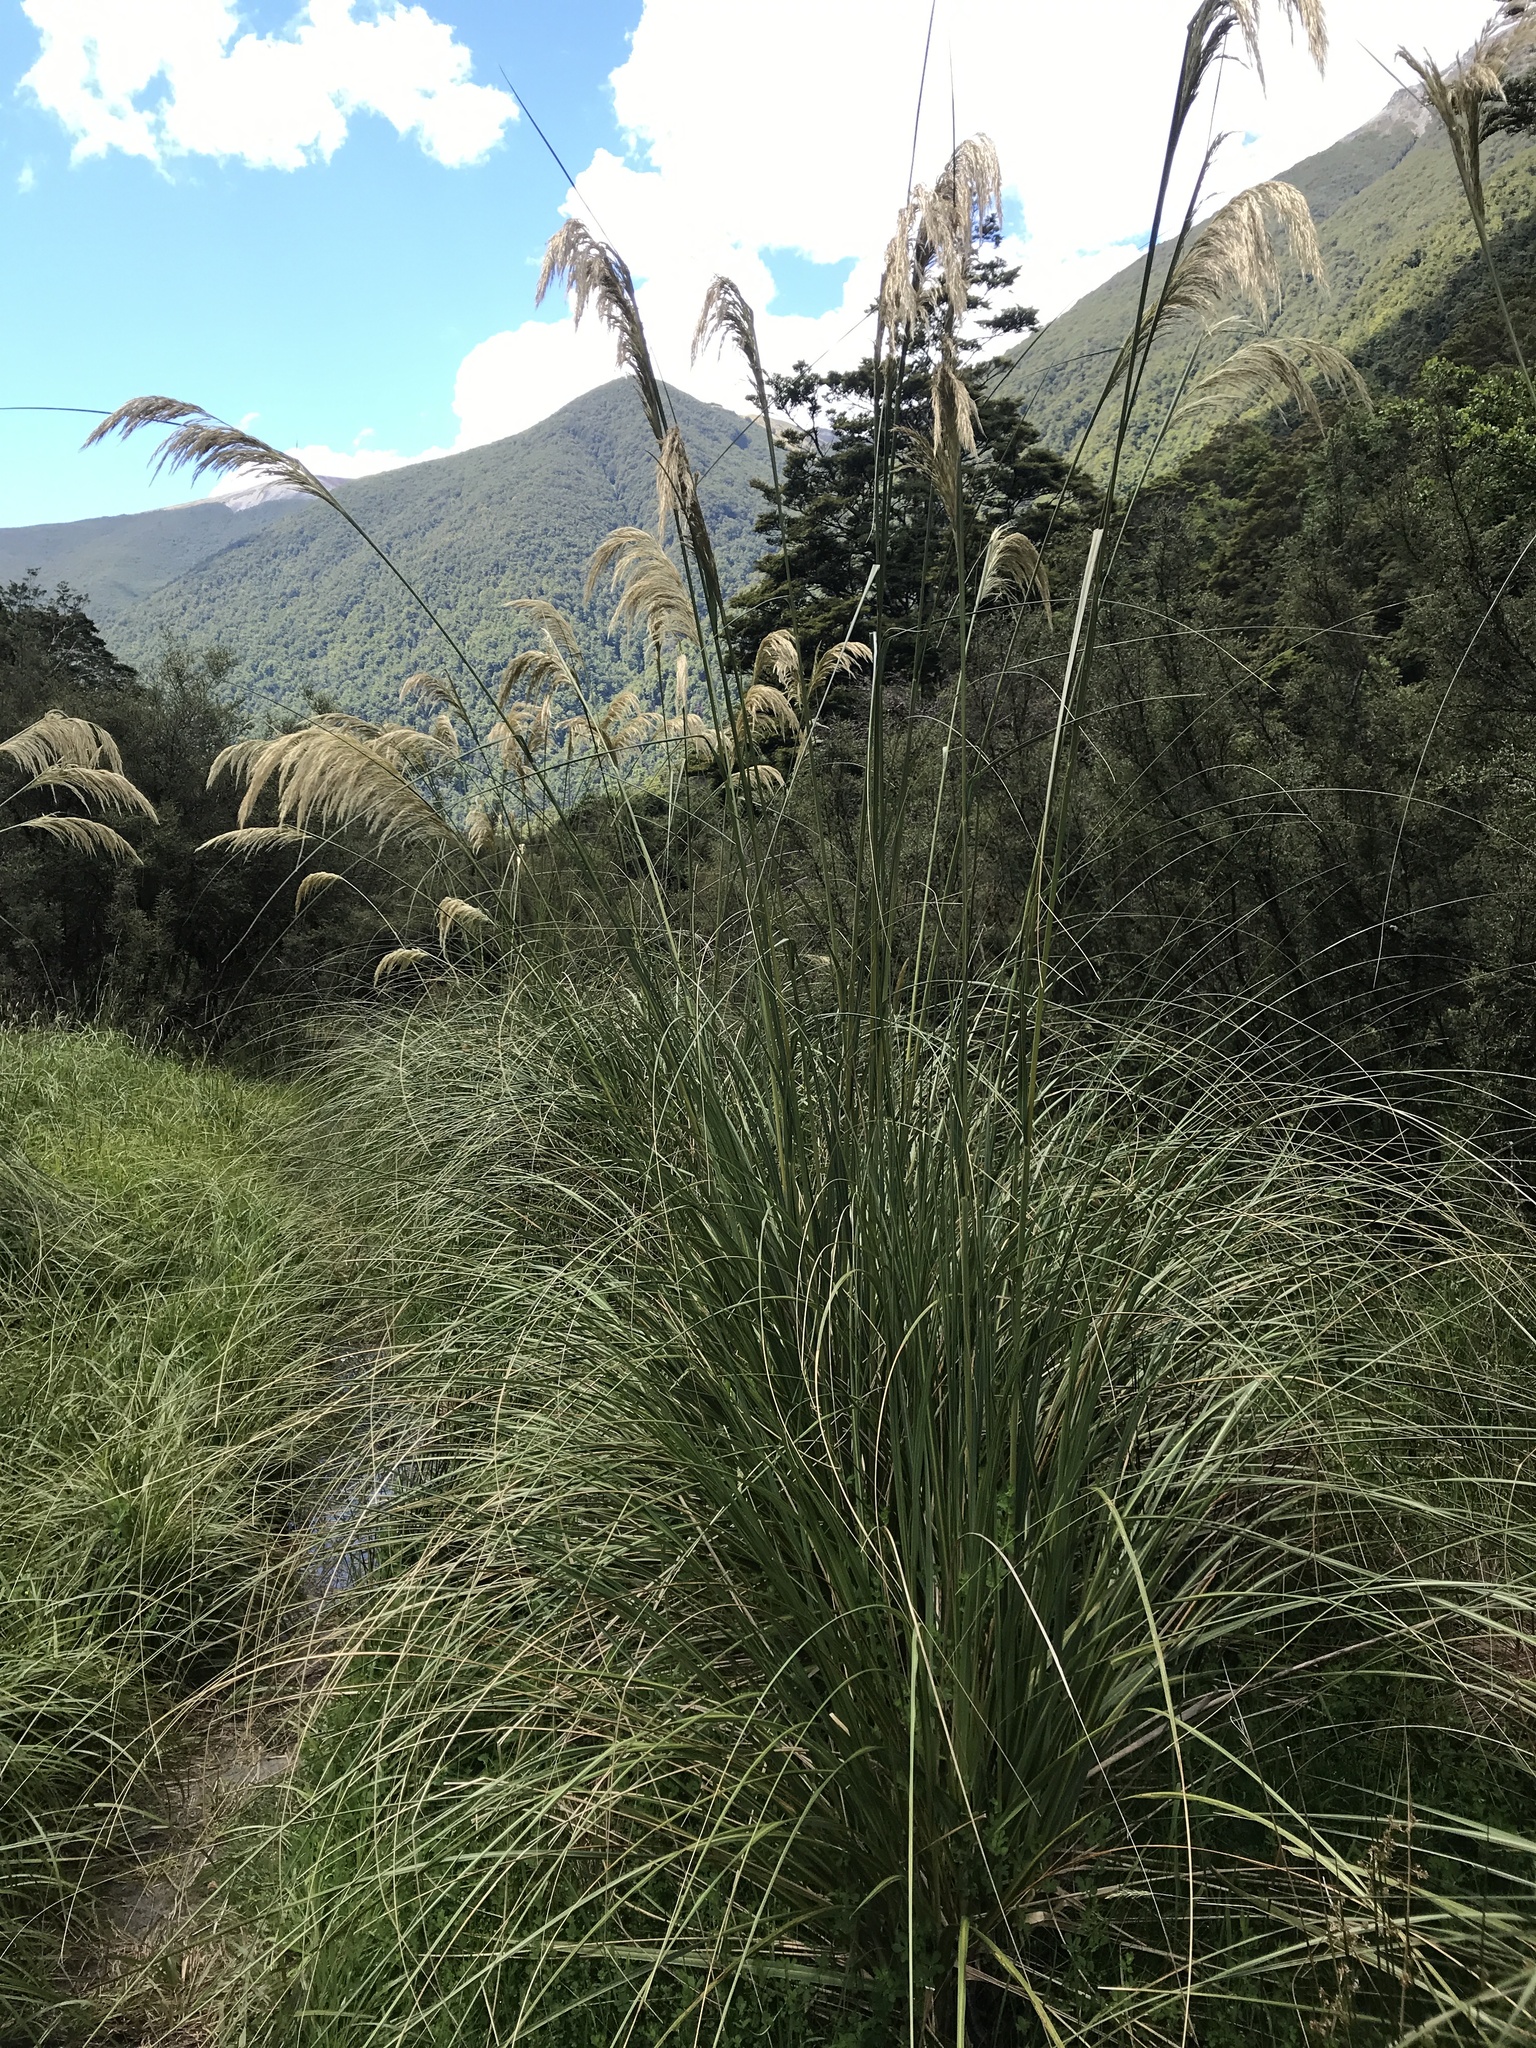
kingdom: Plantae
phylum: Tracheophyta
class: Liliopsida
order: Poales
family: Poaceae
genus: Austroderia
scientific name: Austroderia richardii
